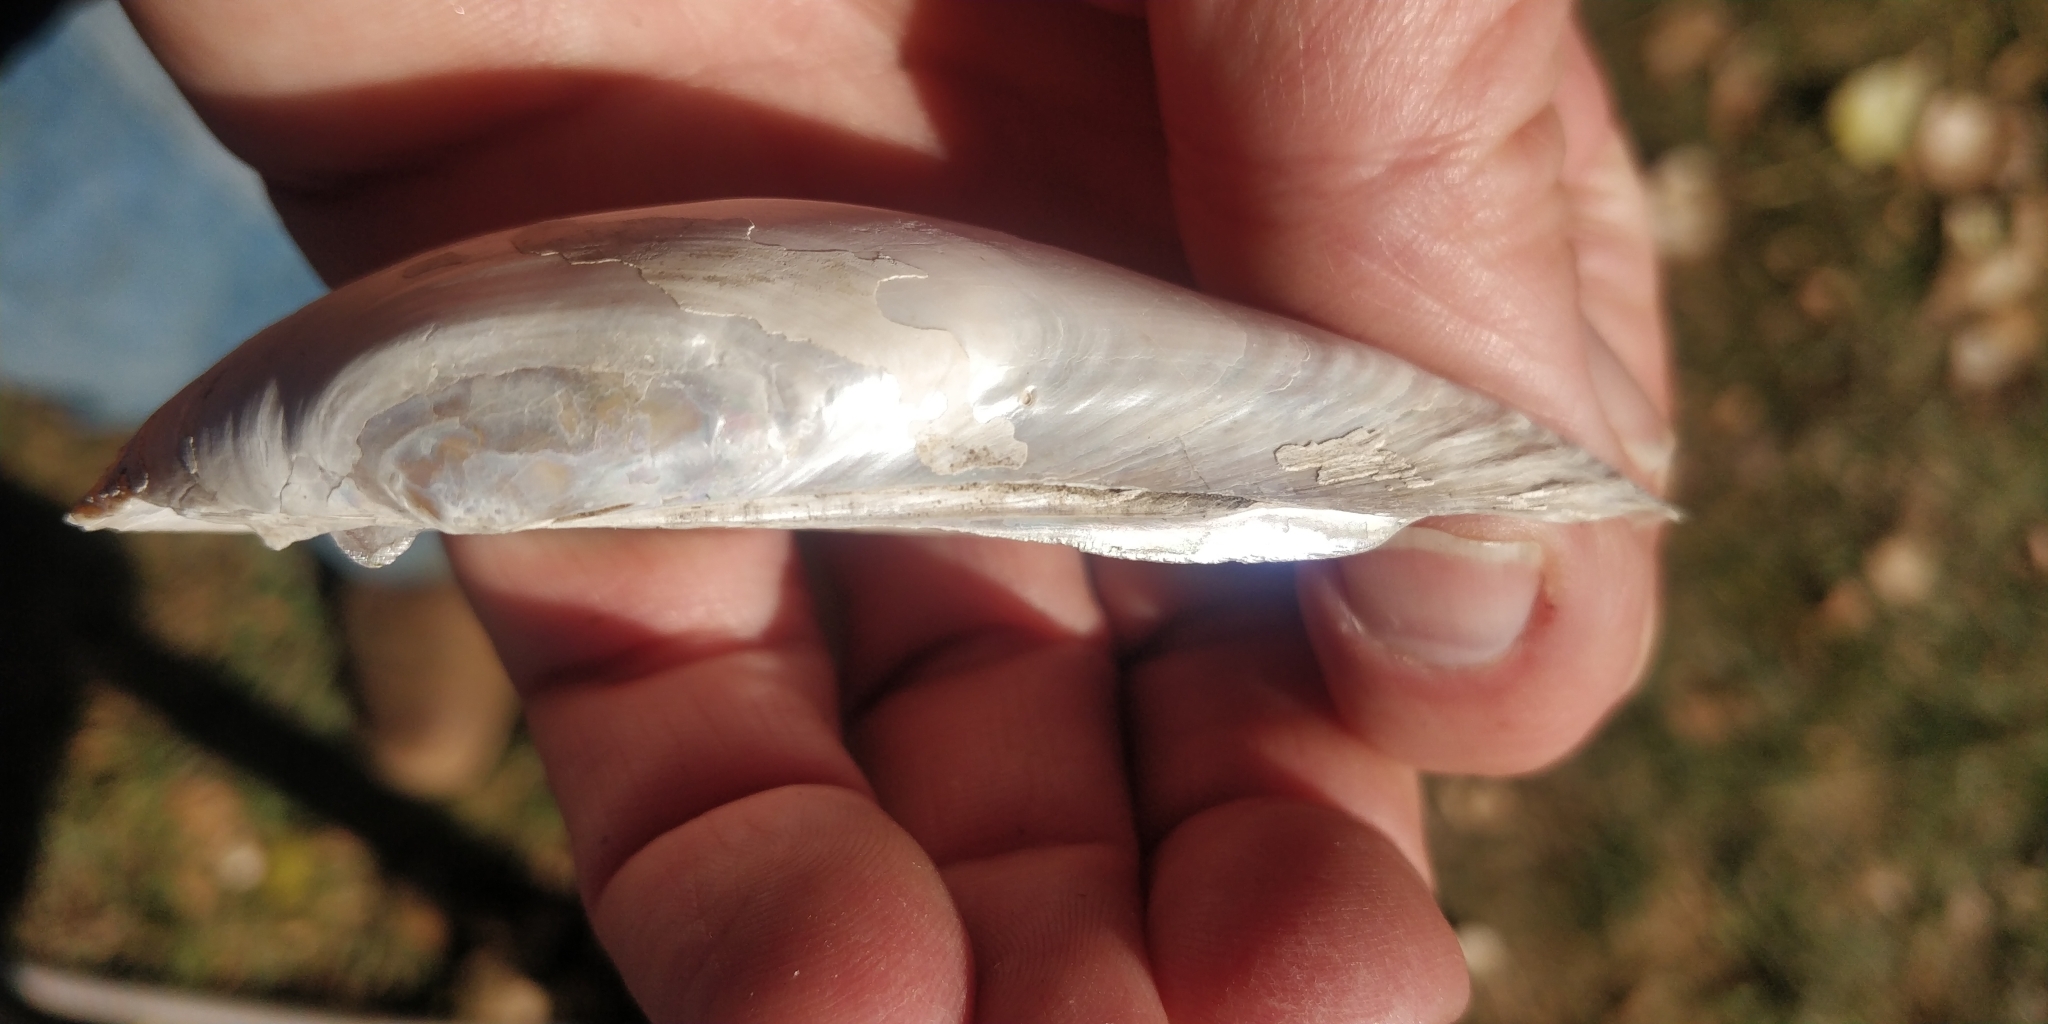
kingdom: Animalia
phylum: Mollusca
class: Bivalvia
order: Unionida
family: Unionidae
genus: Lampsilis
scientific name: Lampsilis teres
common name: Yellow sandshell
